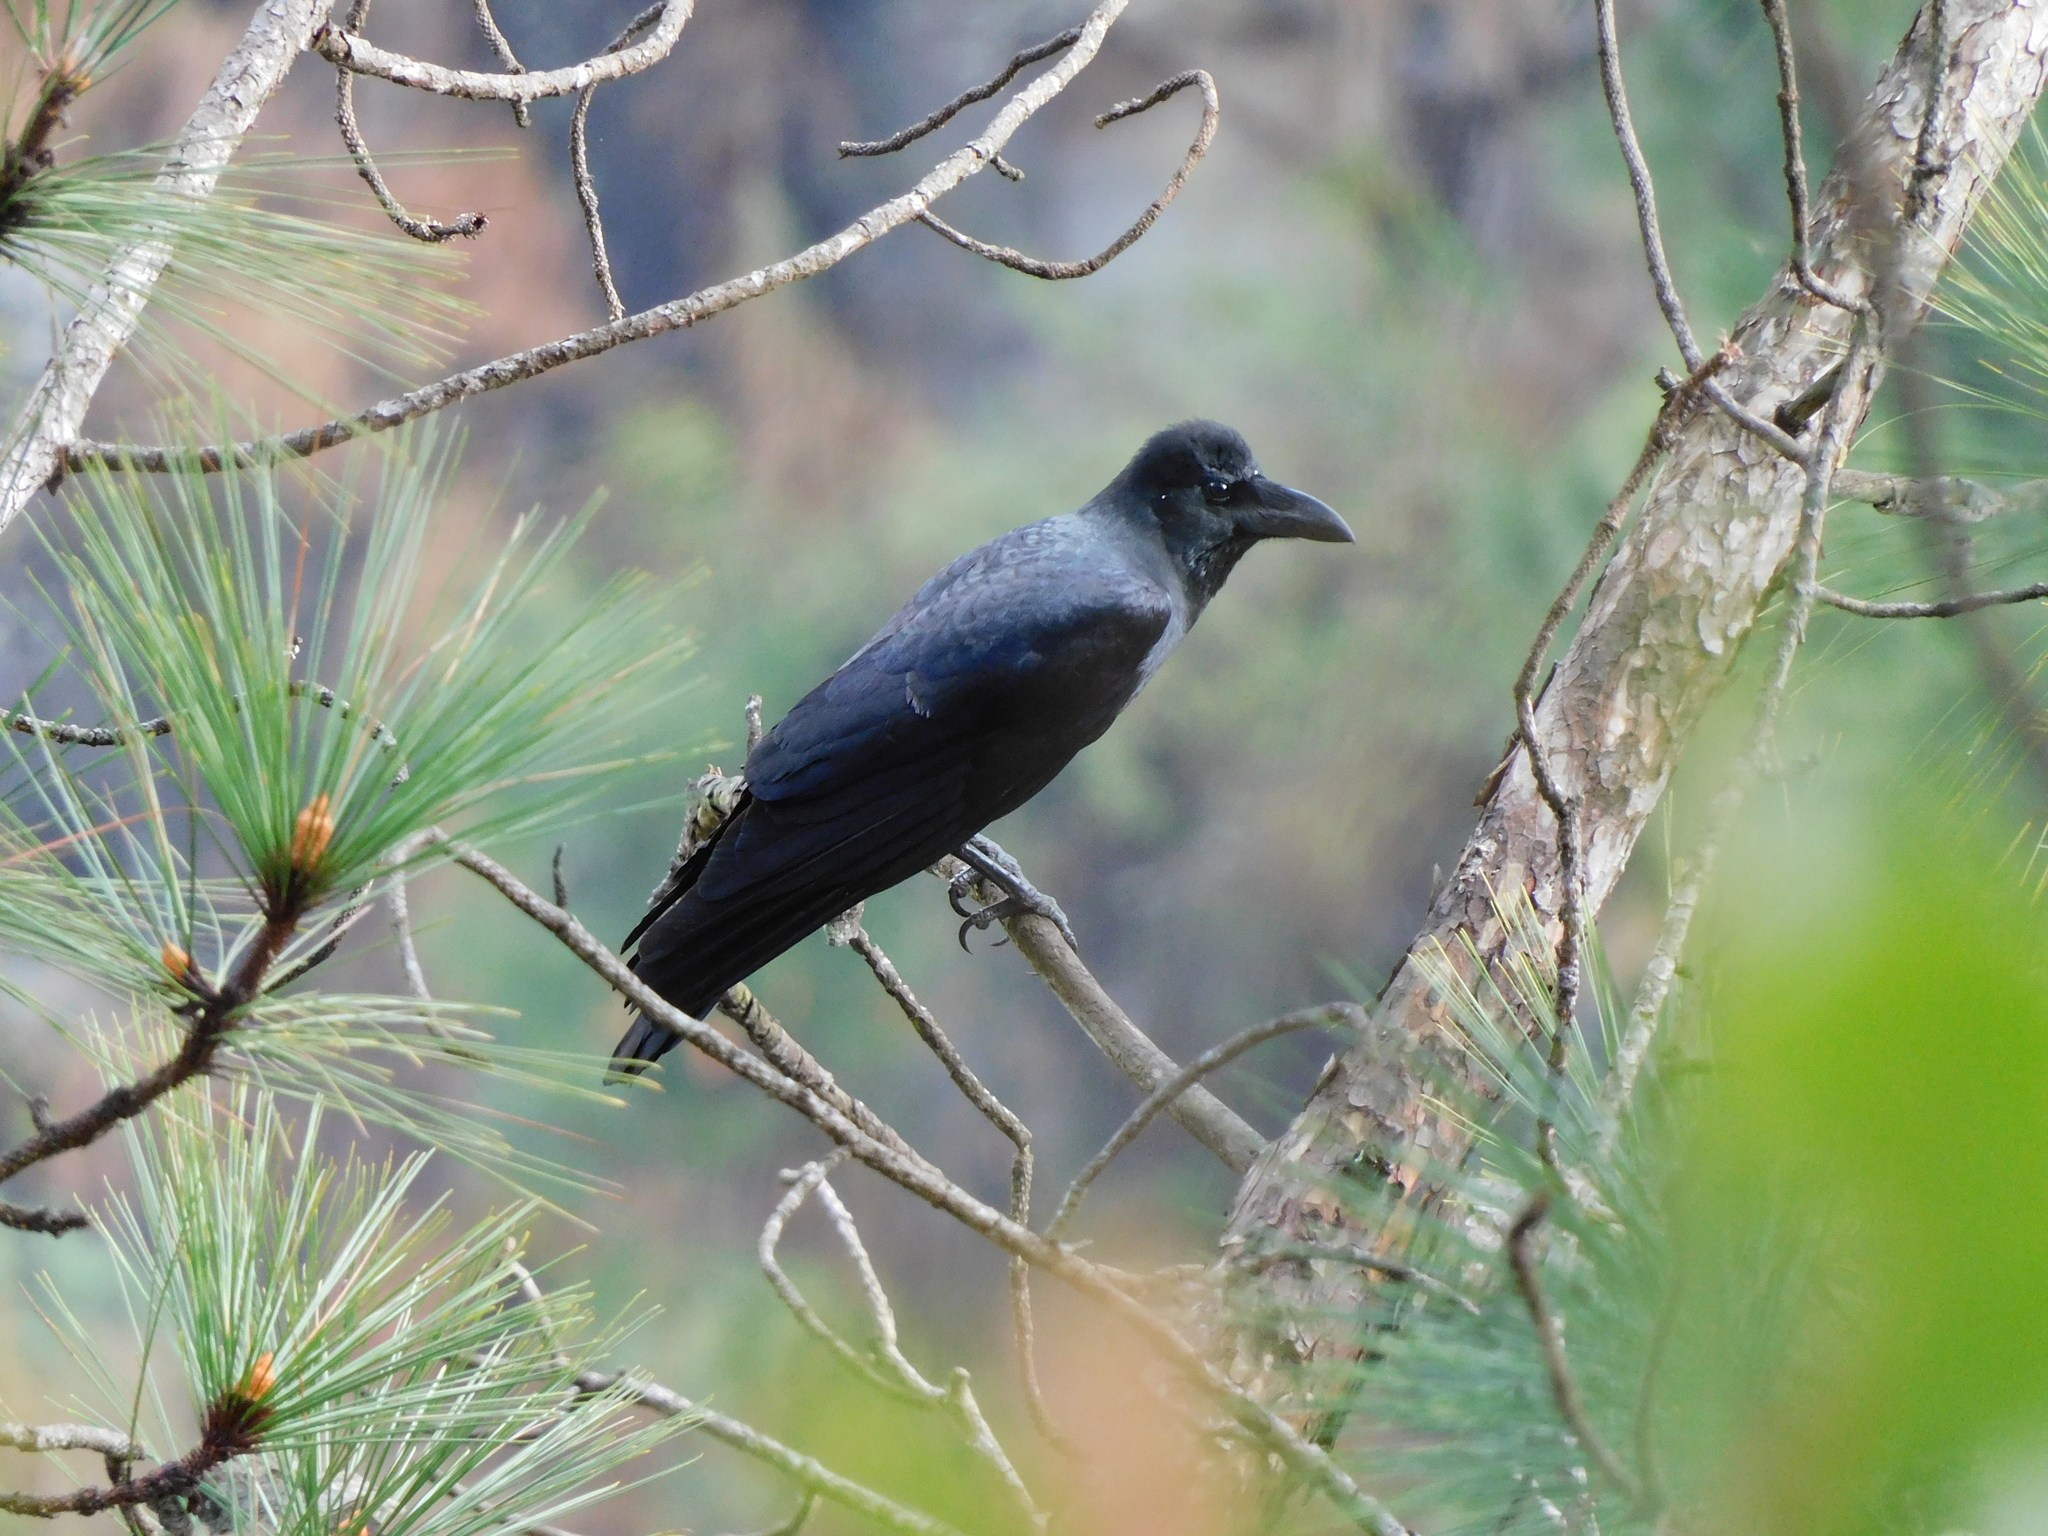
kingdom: Animalia
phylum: Chordata
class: Aves
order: Passeriformes
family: Corvidae
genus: Corvus
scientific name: Corvus macrorhynchos
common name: Large-billed crow
